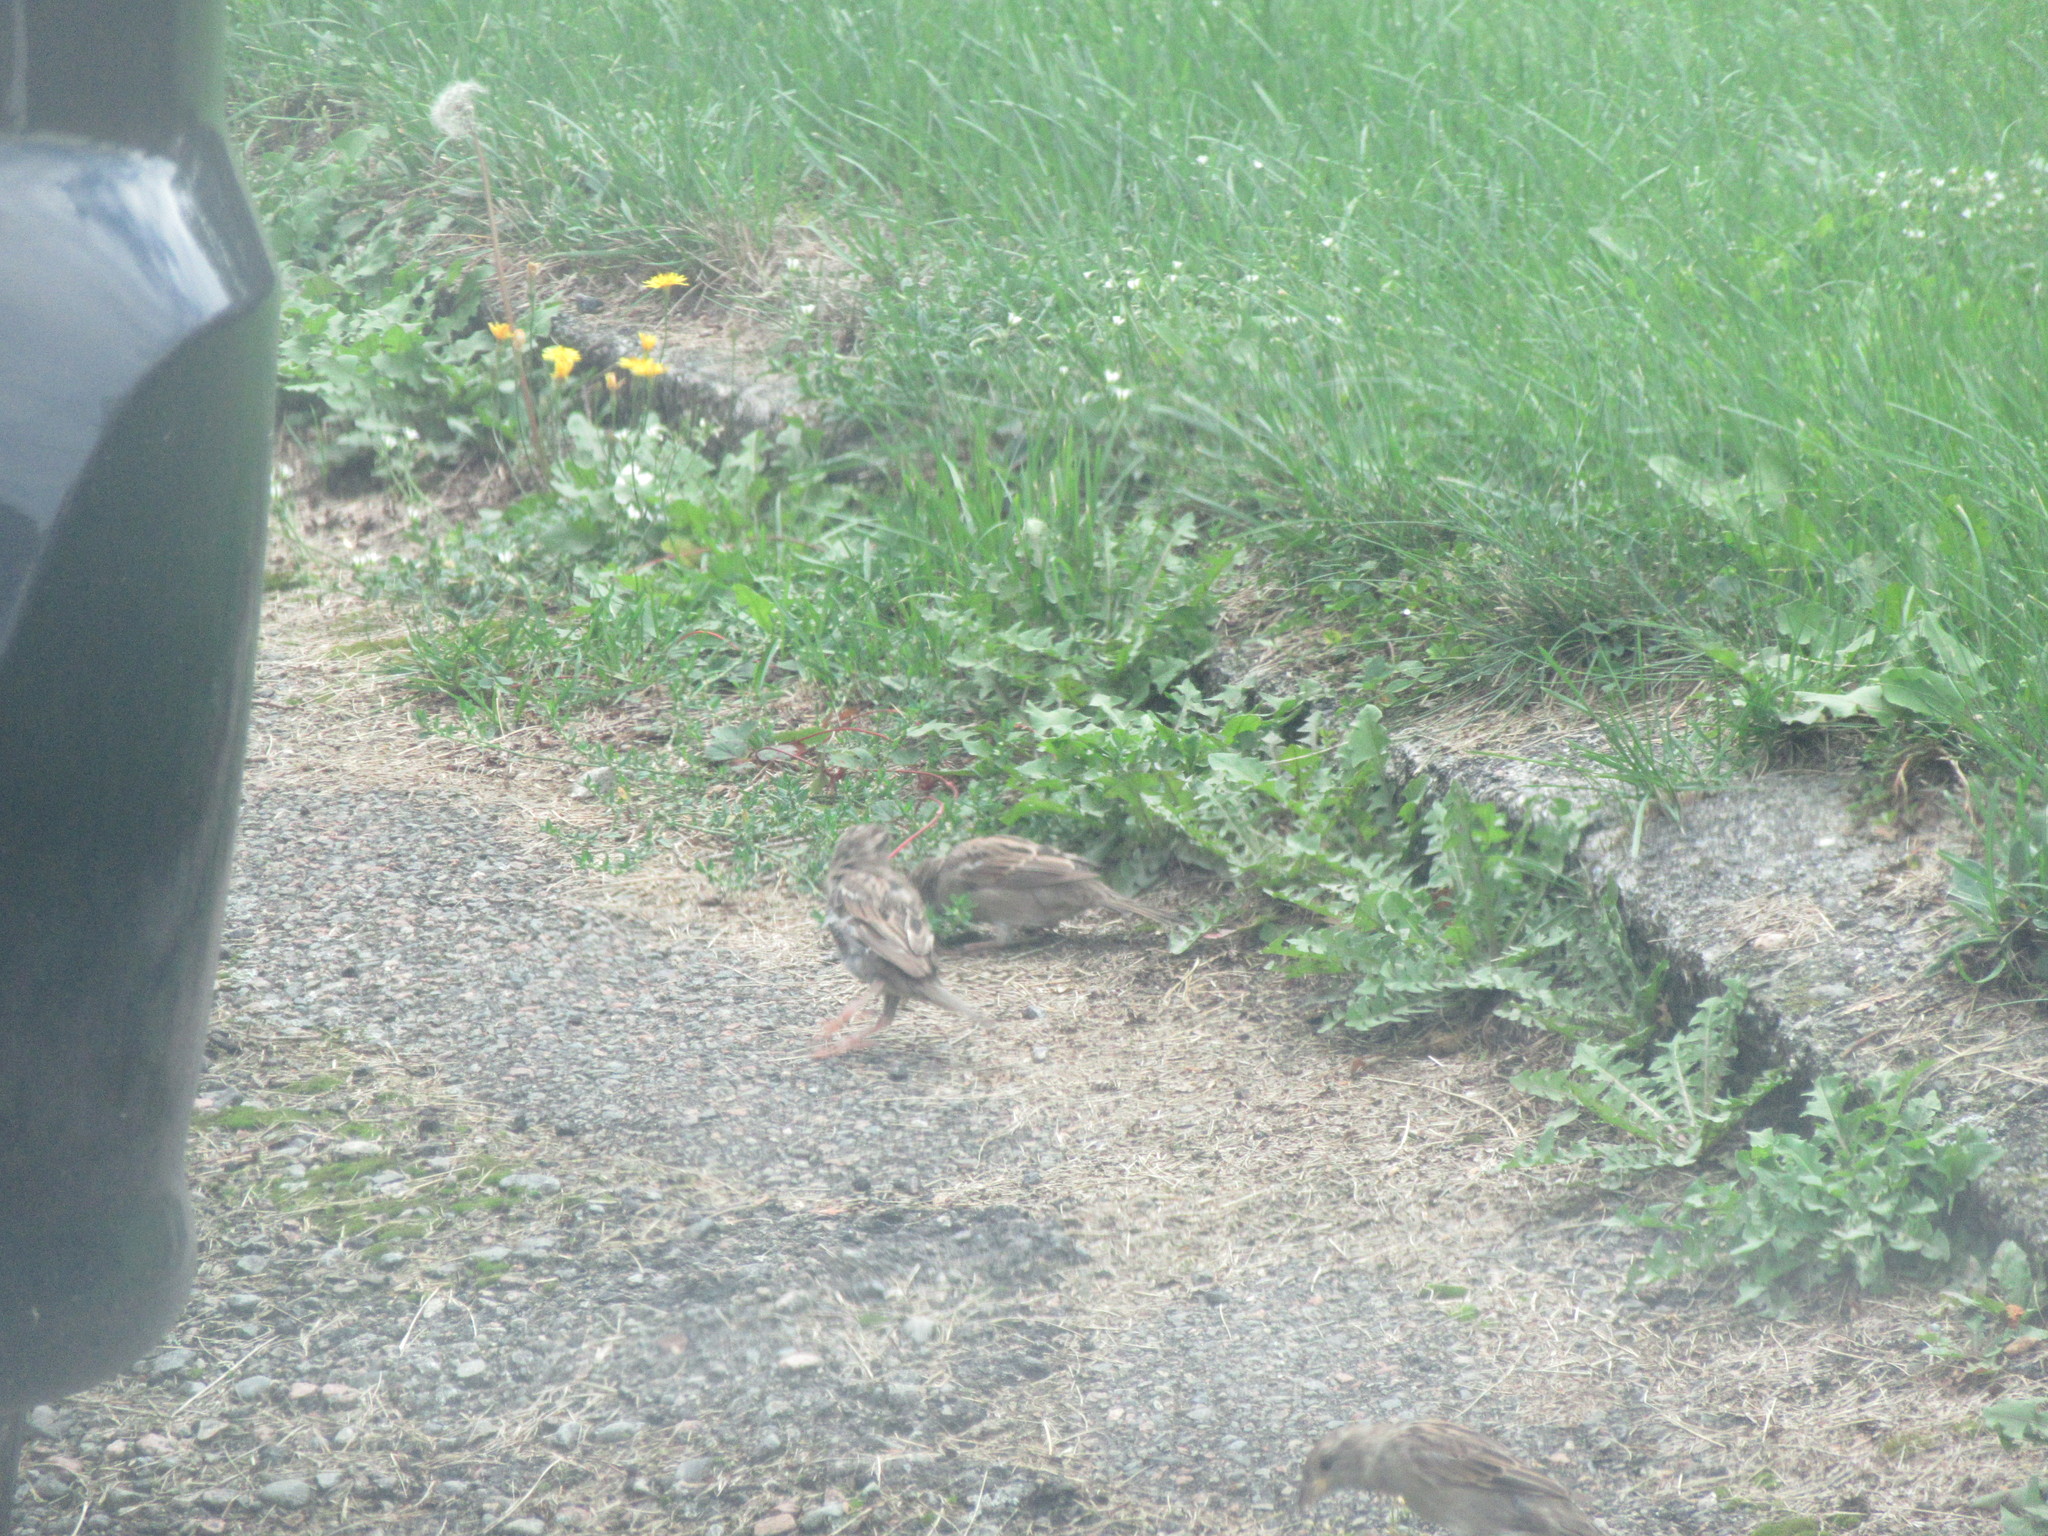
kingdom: Animalia
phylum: Chordata
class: Aves
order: Passeriformes
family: Passeridae
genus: Passer
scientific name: Passer domesticus
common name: House sparrow
